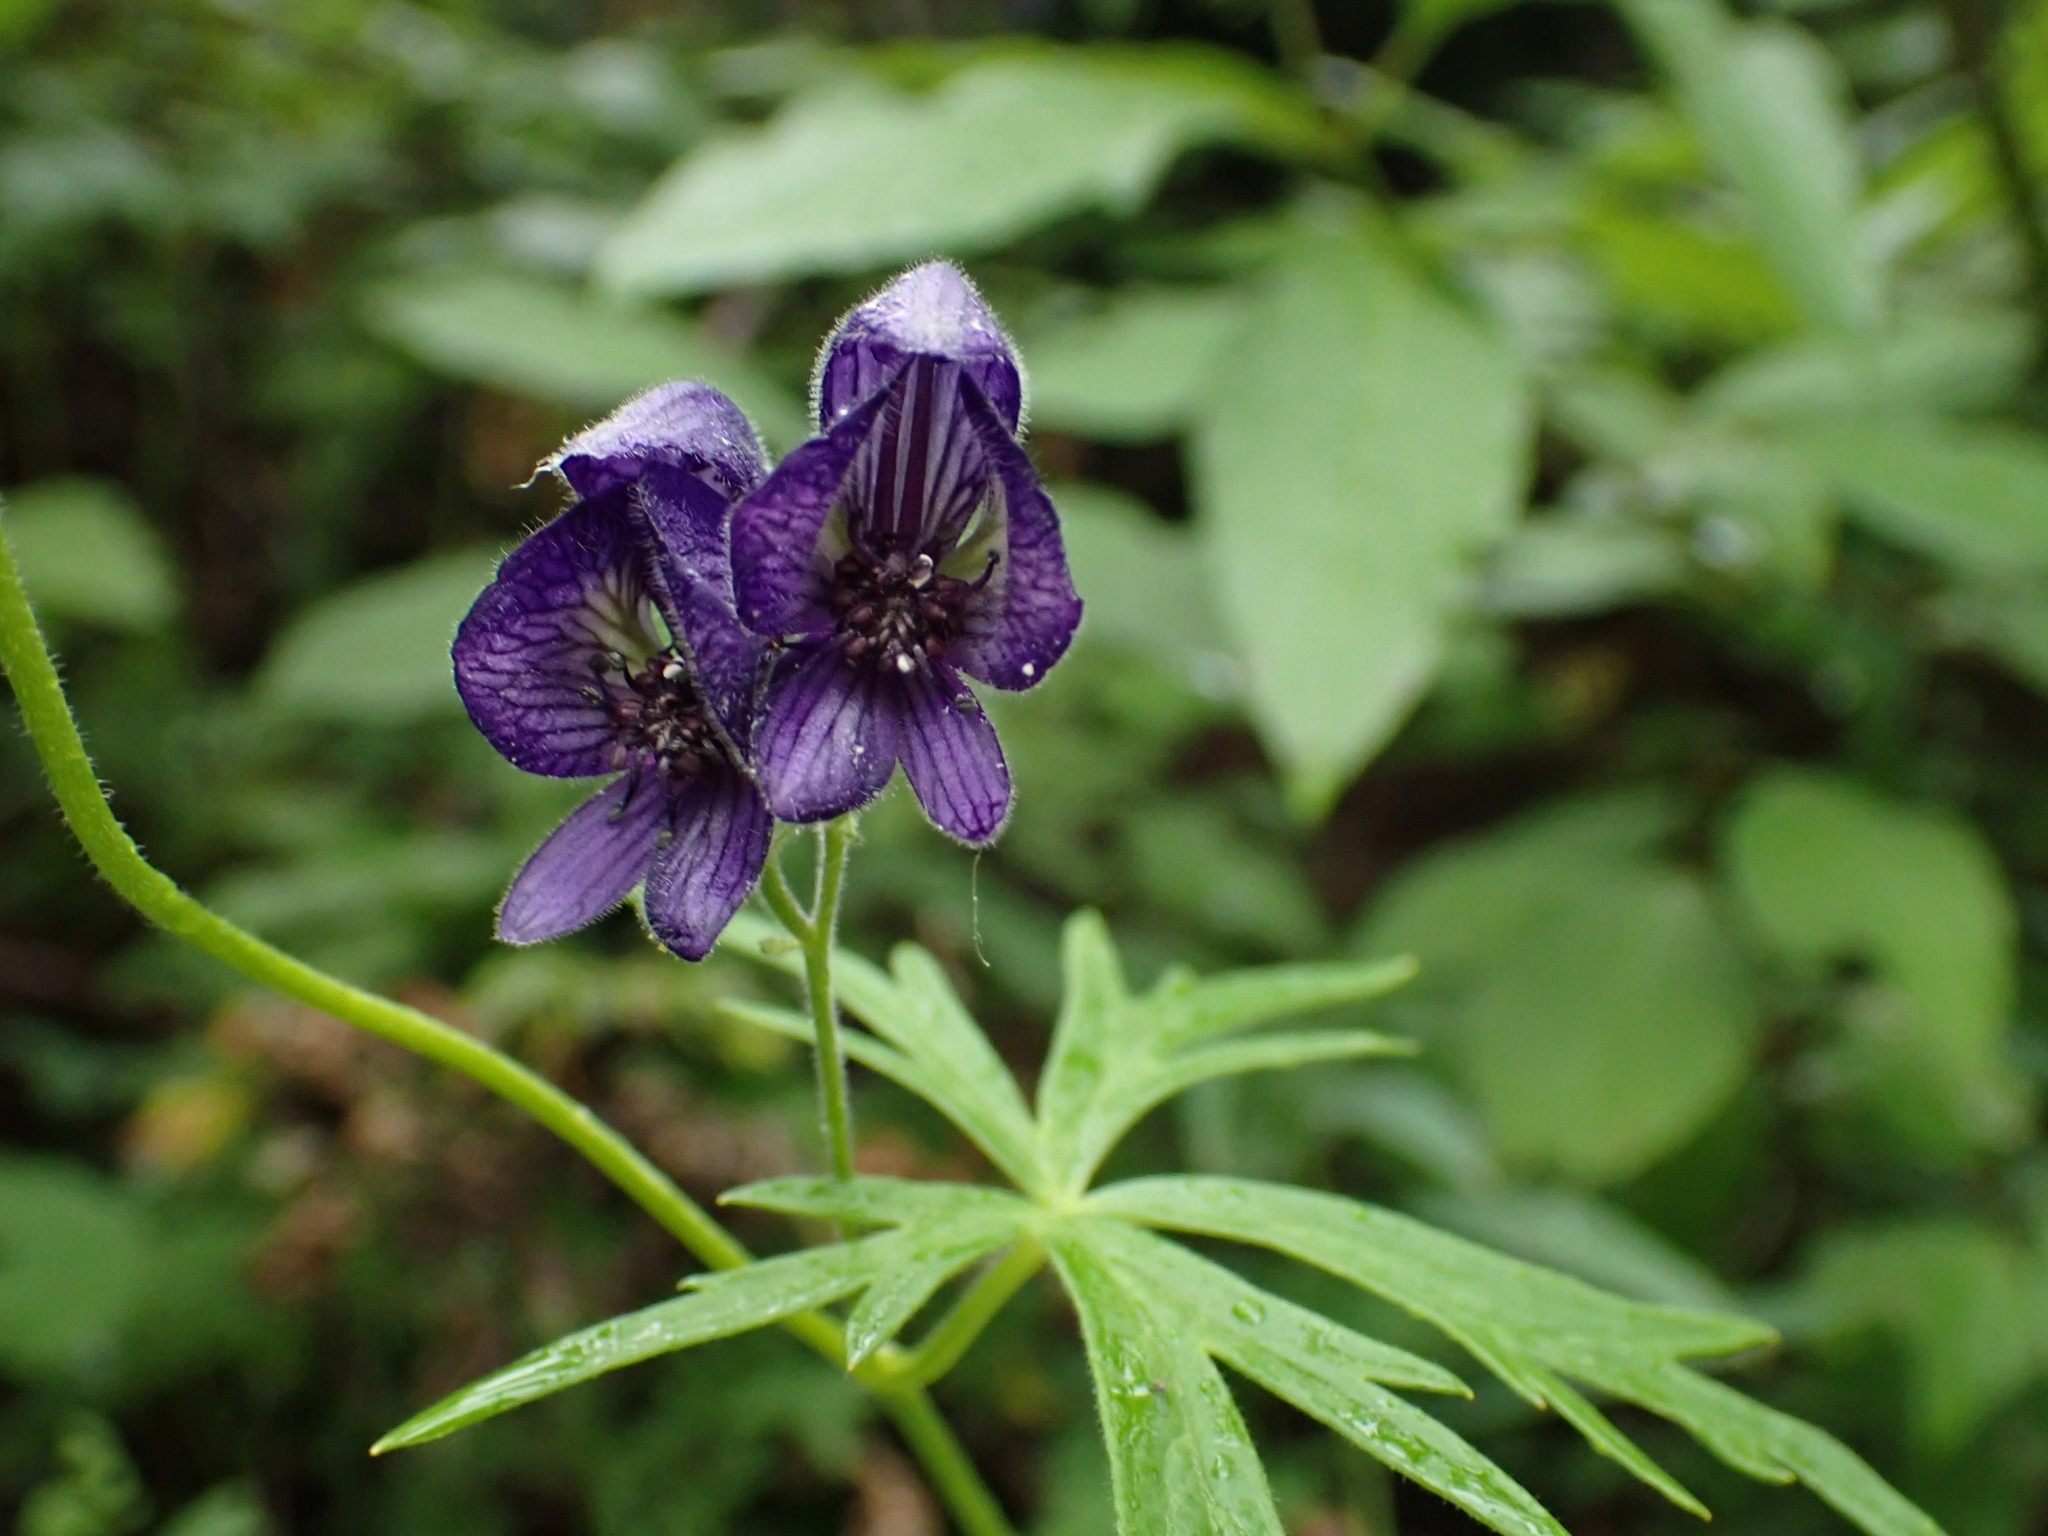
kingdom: Plantae
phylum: Tracheophyta
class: Magnoliopsida
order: Ranunculales
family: Ranunculaceae
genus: Aconitum
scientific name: Aconitum delphiniifolium
